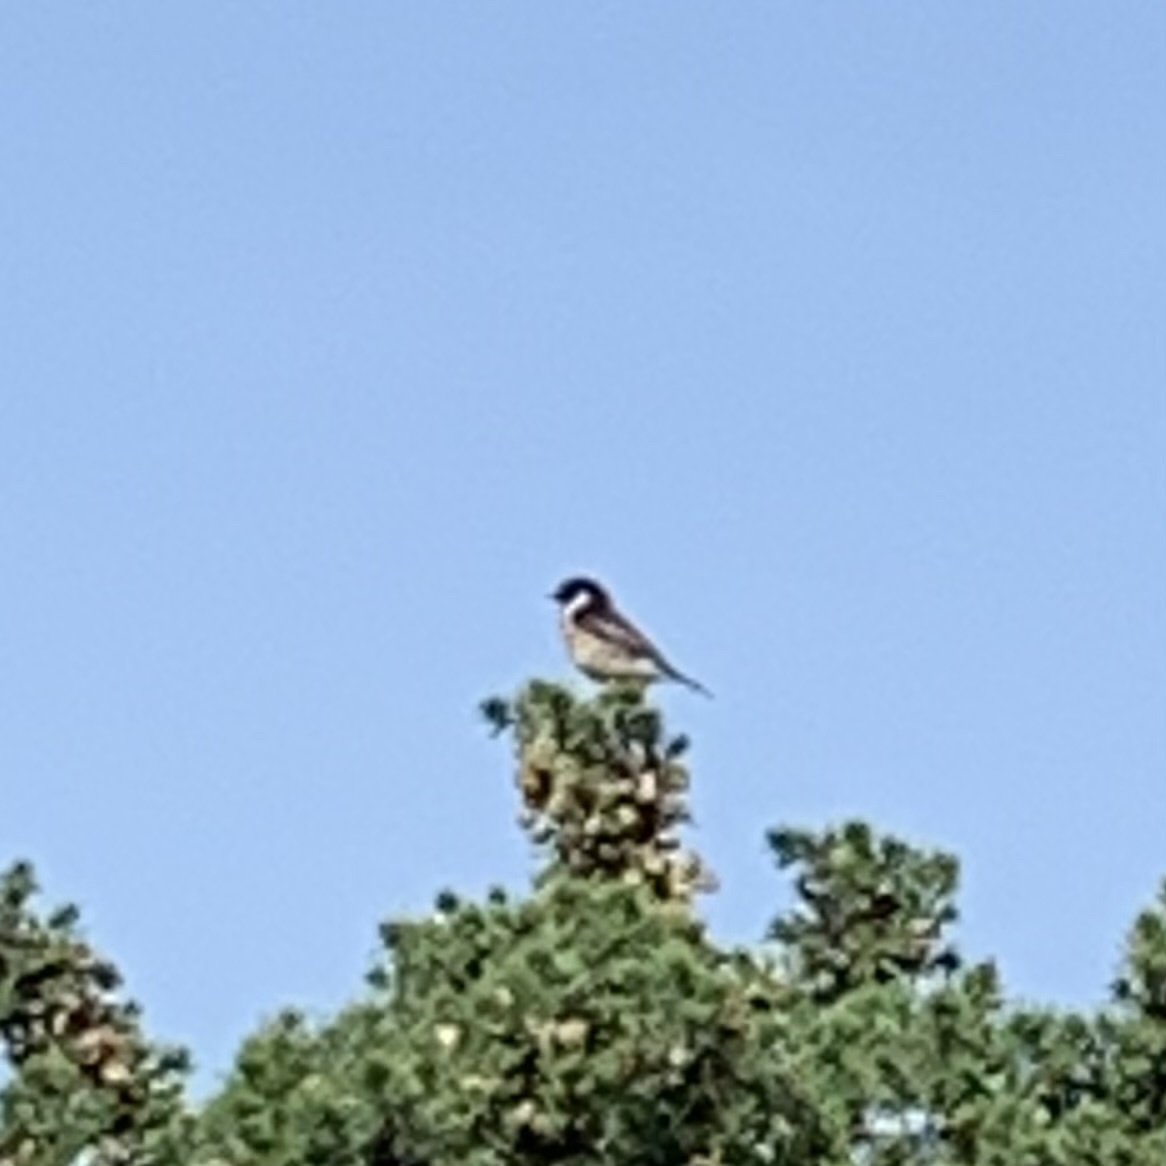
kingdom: Animalia
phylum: Chordata
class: Aves
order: Passeriformes
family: Muscicapidae
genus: Saxicola
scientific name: Saxicola rubicola
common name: European stonechat
